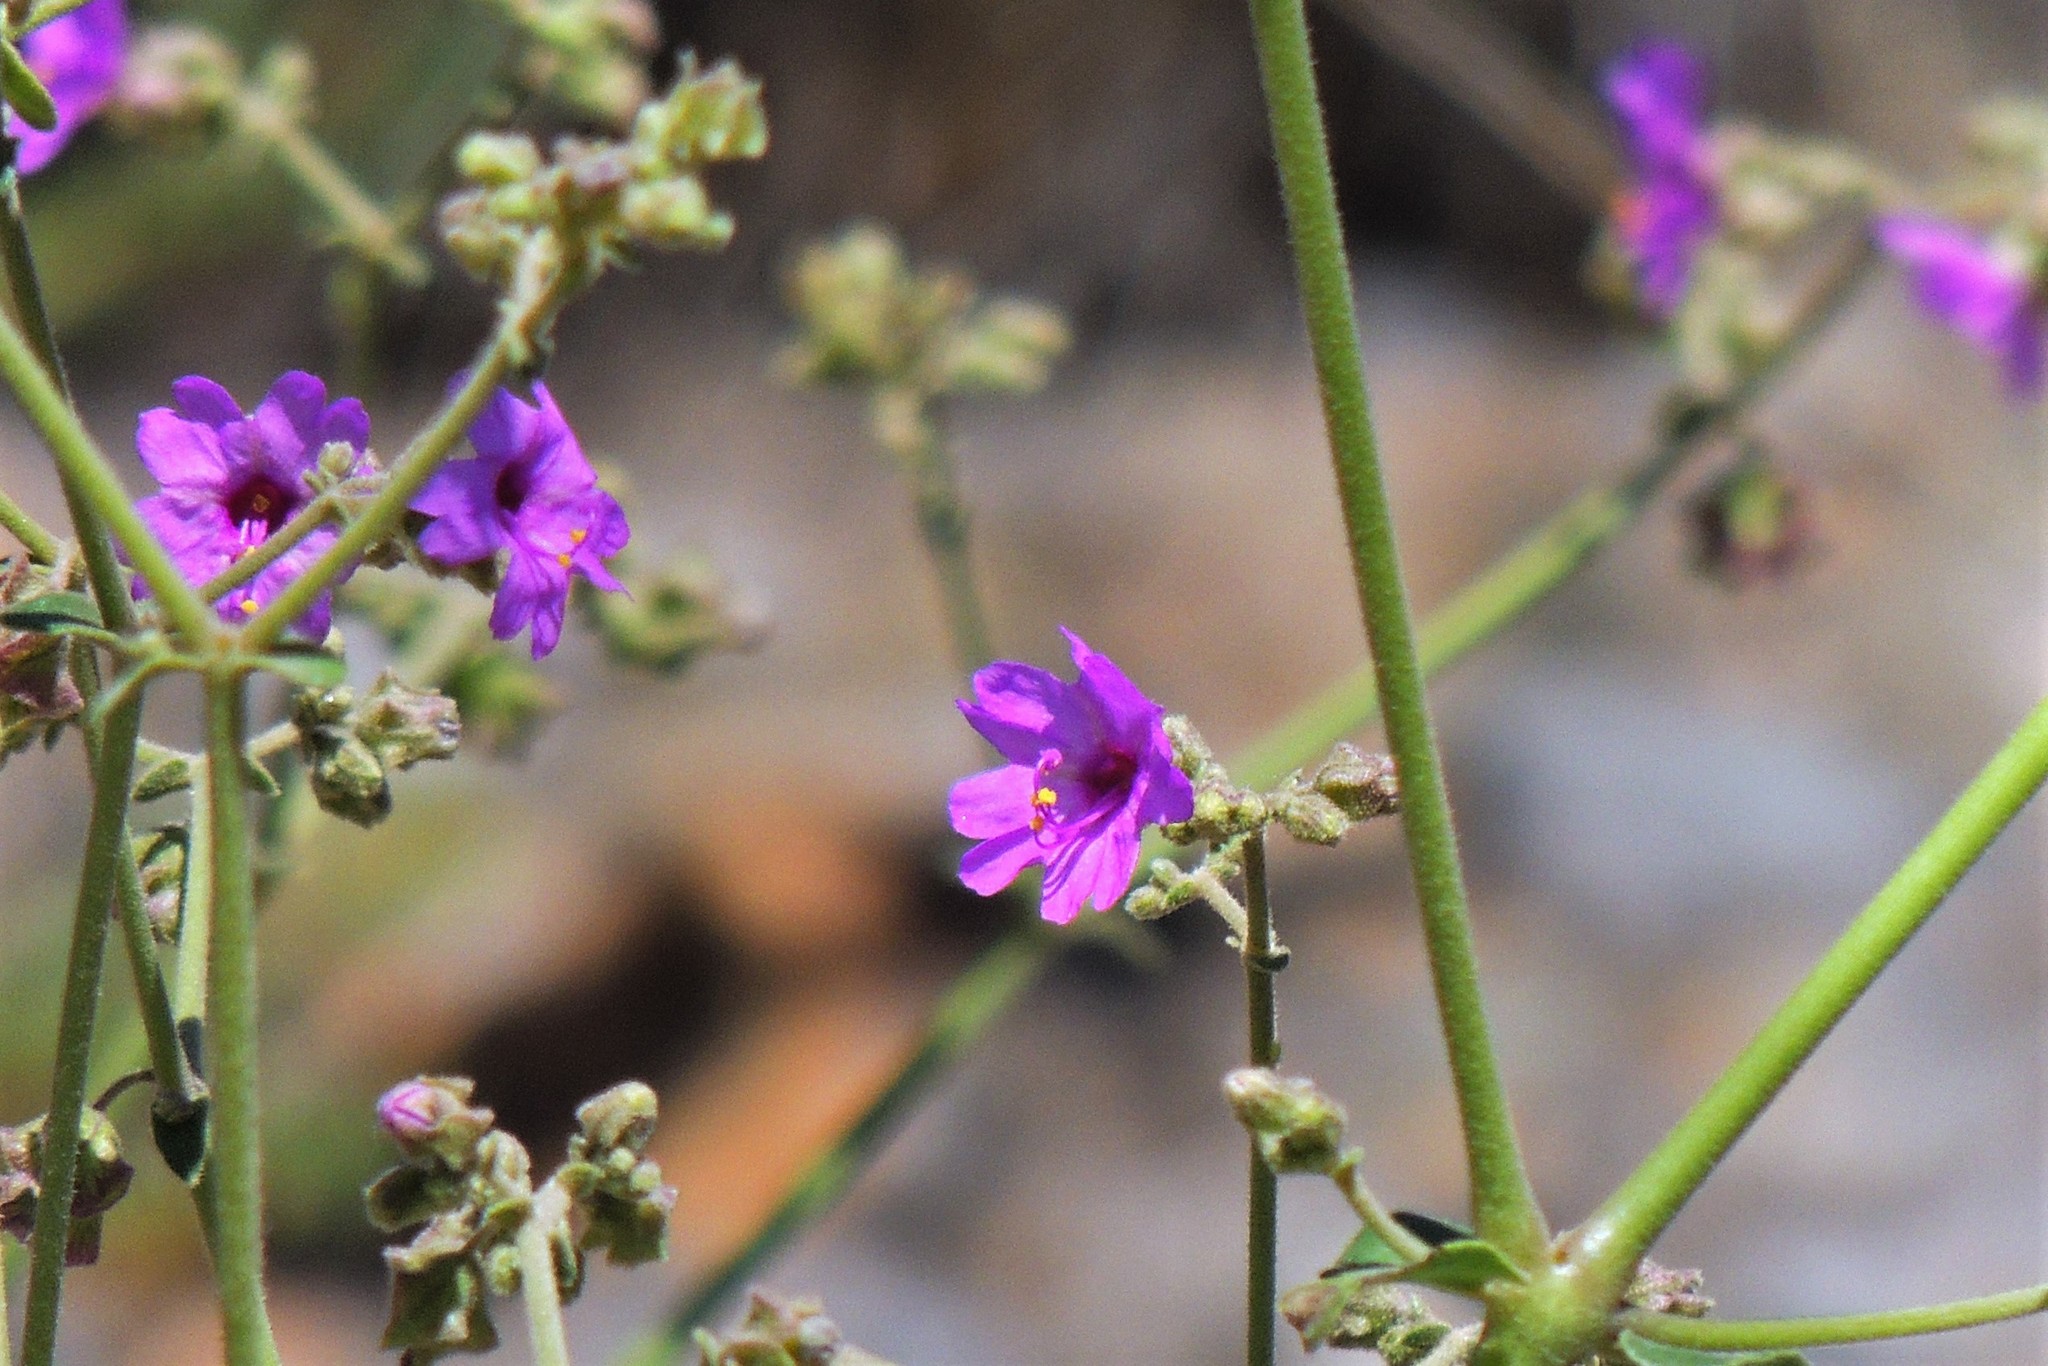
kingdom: Plantae
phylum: Tracheophyta
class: Magnoliopsida
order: Caryophyllales
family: Nyctaginaceae
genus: Mirabilis
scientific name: Mirabilis ovata
